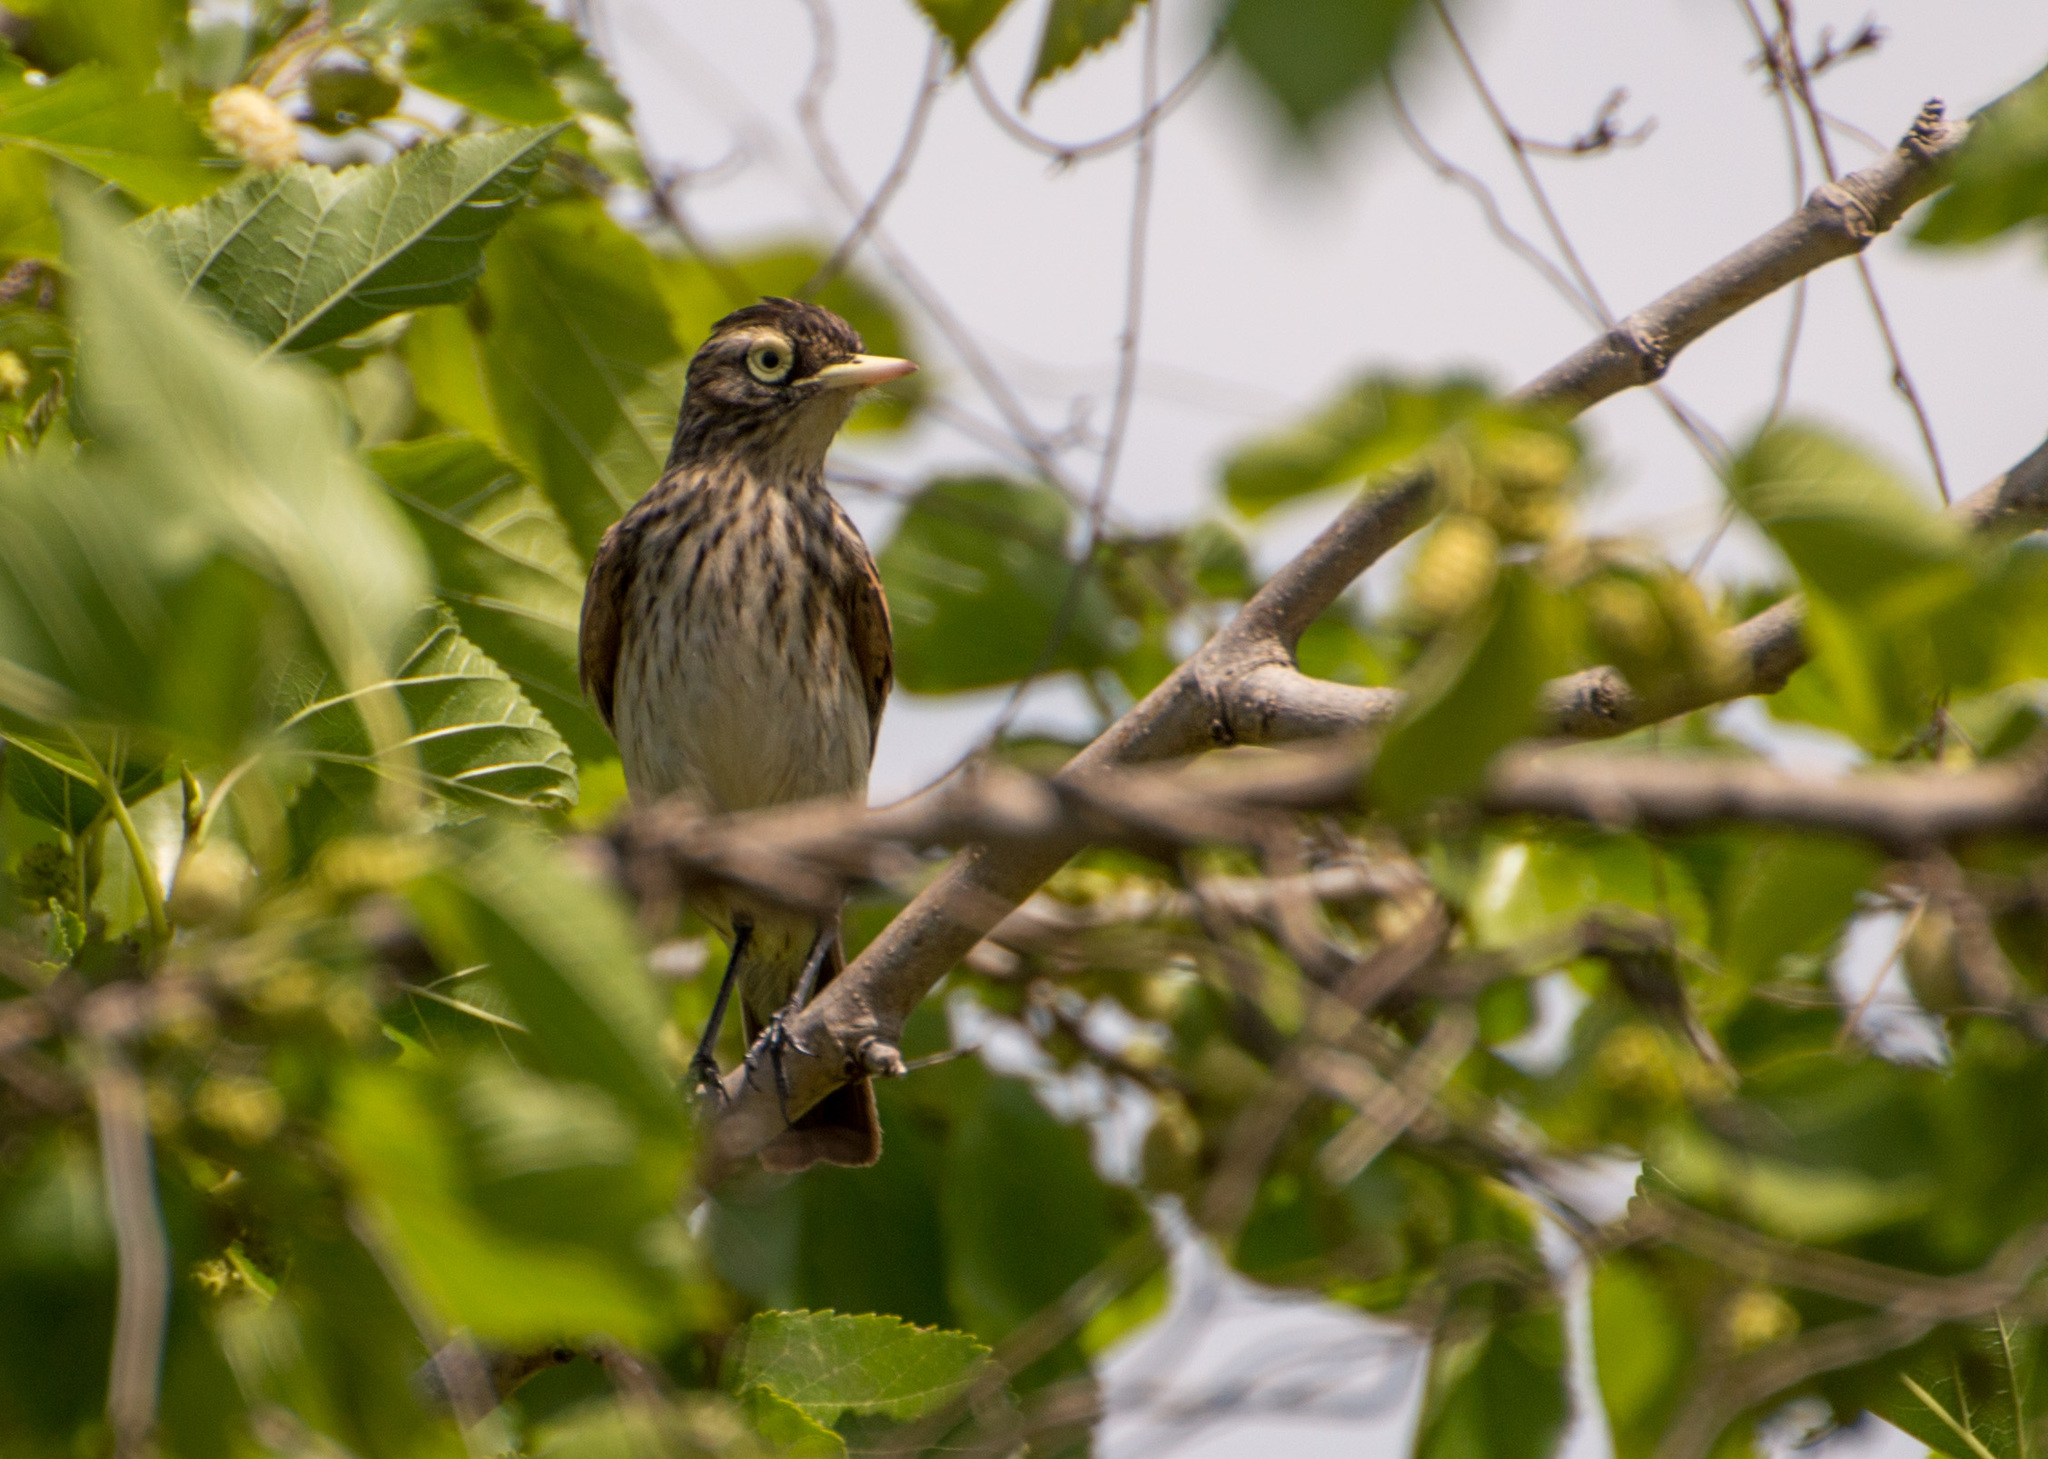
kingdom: Animalia
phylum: Chordata
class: Aves
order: Passeriformes
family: Tyrannidae
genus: Hymenops
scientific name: Hymenops perspicillatus
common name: Spectacled tyrant
